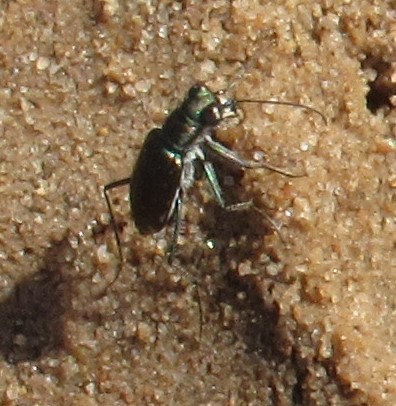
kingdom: Animalia
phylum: Arthropoda
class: Insecta
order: Coleoptera
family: Carabidae
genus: Cicindela
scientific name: Cicindela punctulata
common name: Punctured tiger beetle
